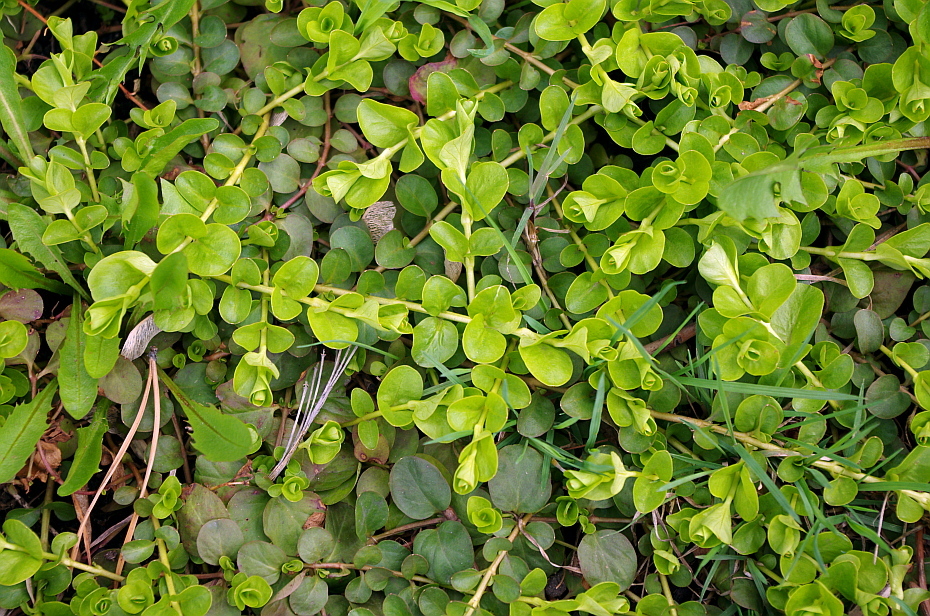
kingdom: Plantae
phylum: Tracheophyta
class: Magnoliopsida
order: Ericales
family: Primulaceae
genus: Lysimachia
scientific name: Lysimachia nummularia
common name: Moneywort
